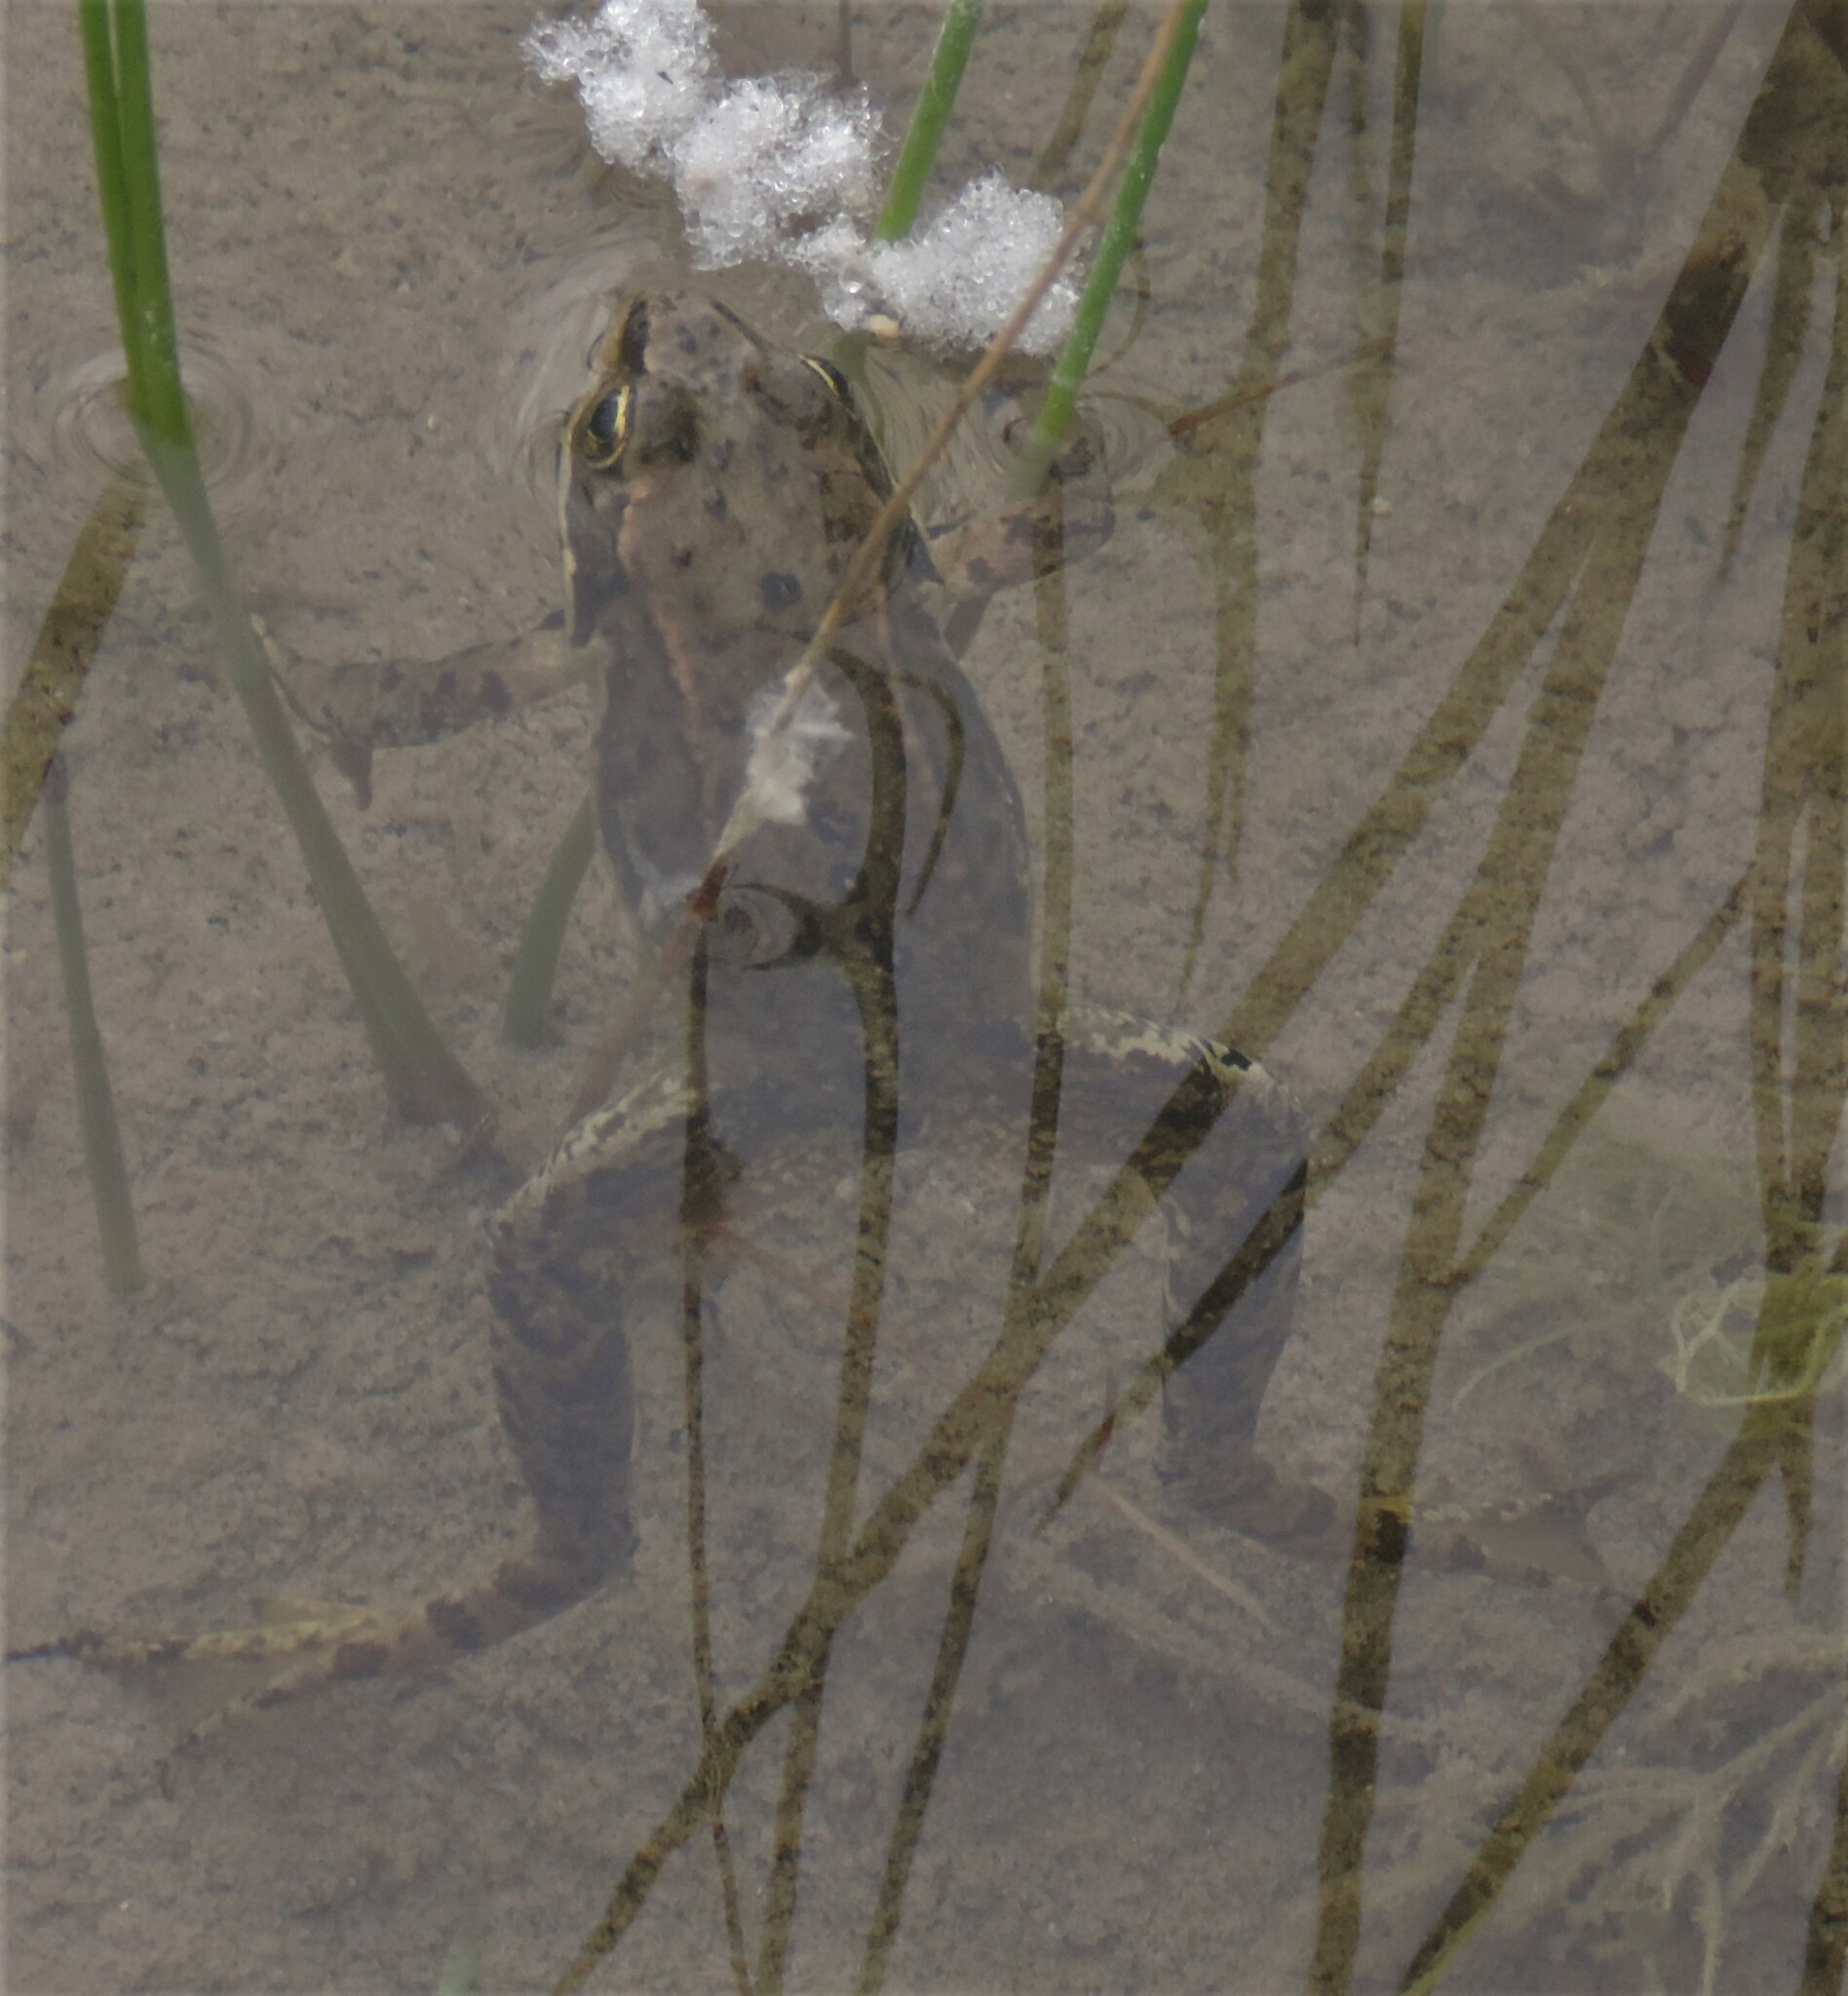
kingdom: Animalia
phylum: Chordata
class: Amphibia
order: Anura
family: Ranidae
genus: Rana
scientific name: Rana luteiventris
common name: Columbia spotted frog
